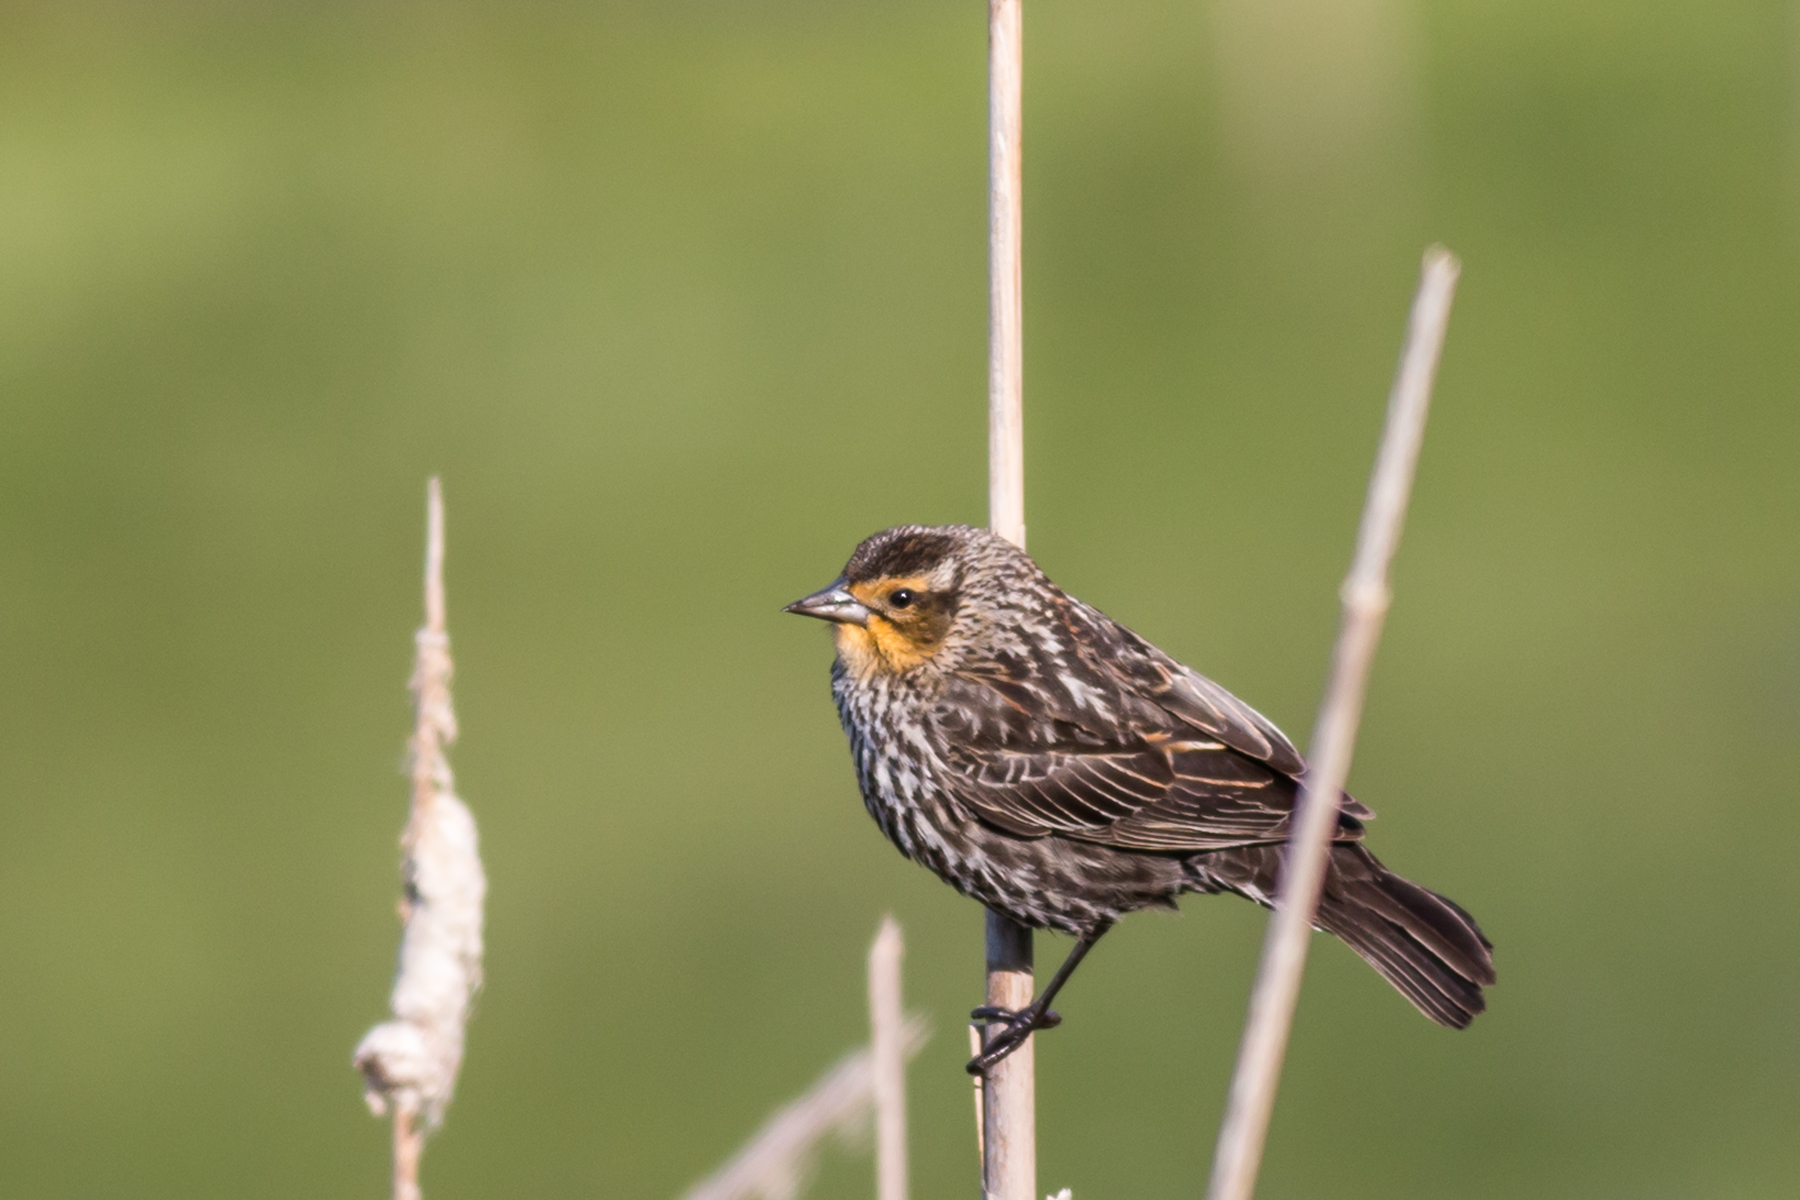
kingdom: Animalia
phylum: Chordata
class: Aves
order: Passeriformes
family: Icteridae
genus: Agelaius
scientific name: Agelaius phoeniceus
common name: Red-winged blackbird
